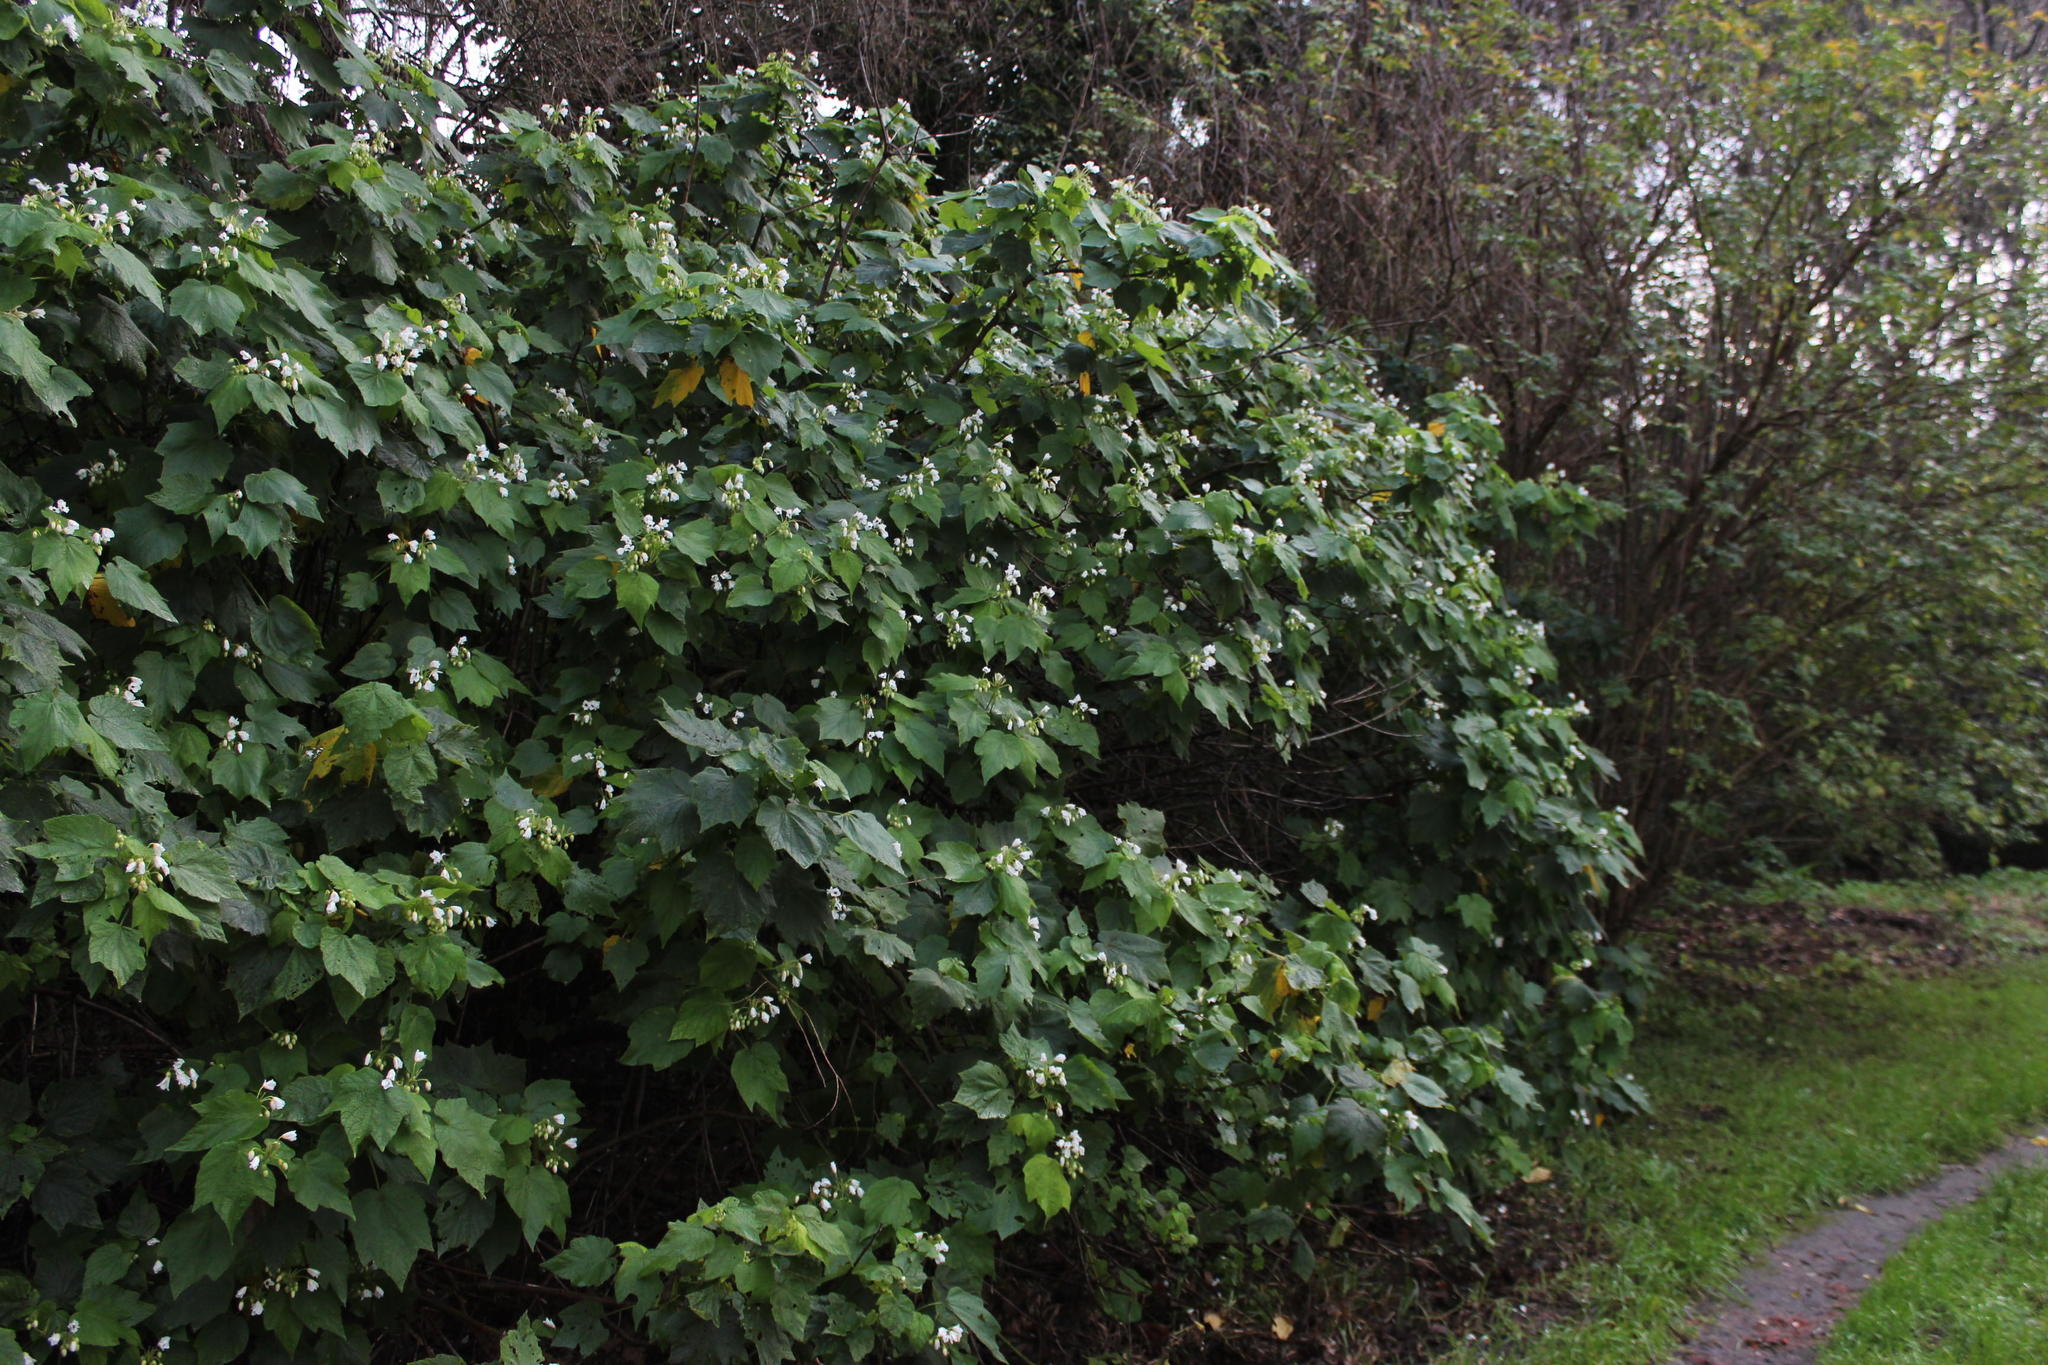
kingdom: Plantae
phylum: Tracheophyta
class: Magnoliopsida
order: Malvales
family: Malvaceae
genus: Sparrmannia
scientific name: Sparrmannia africana
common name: African-hemp
